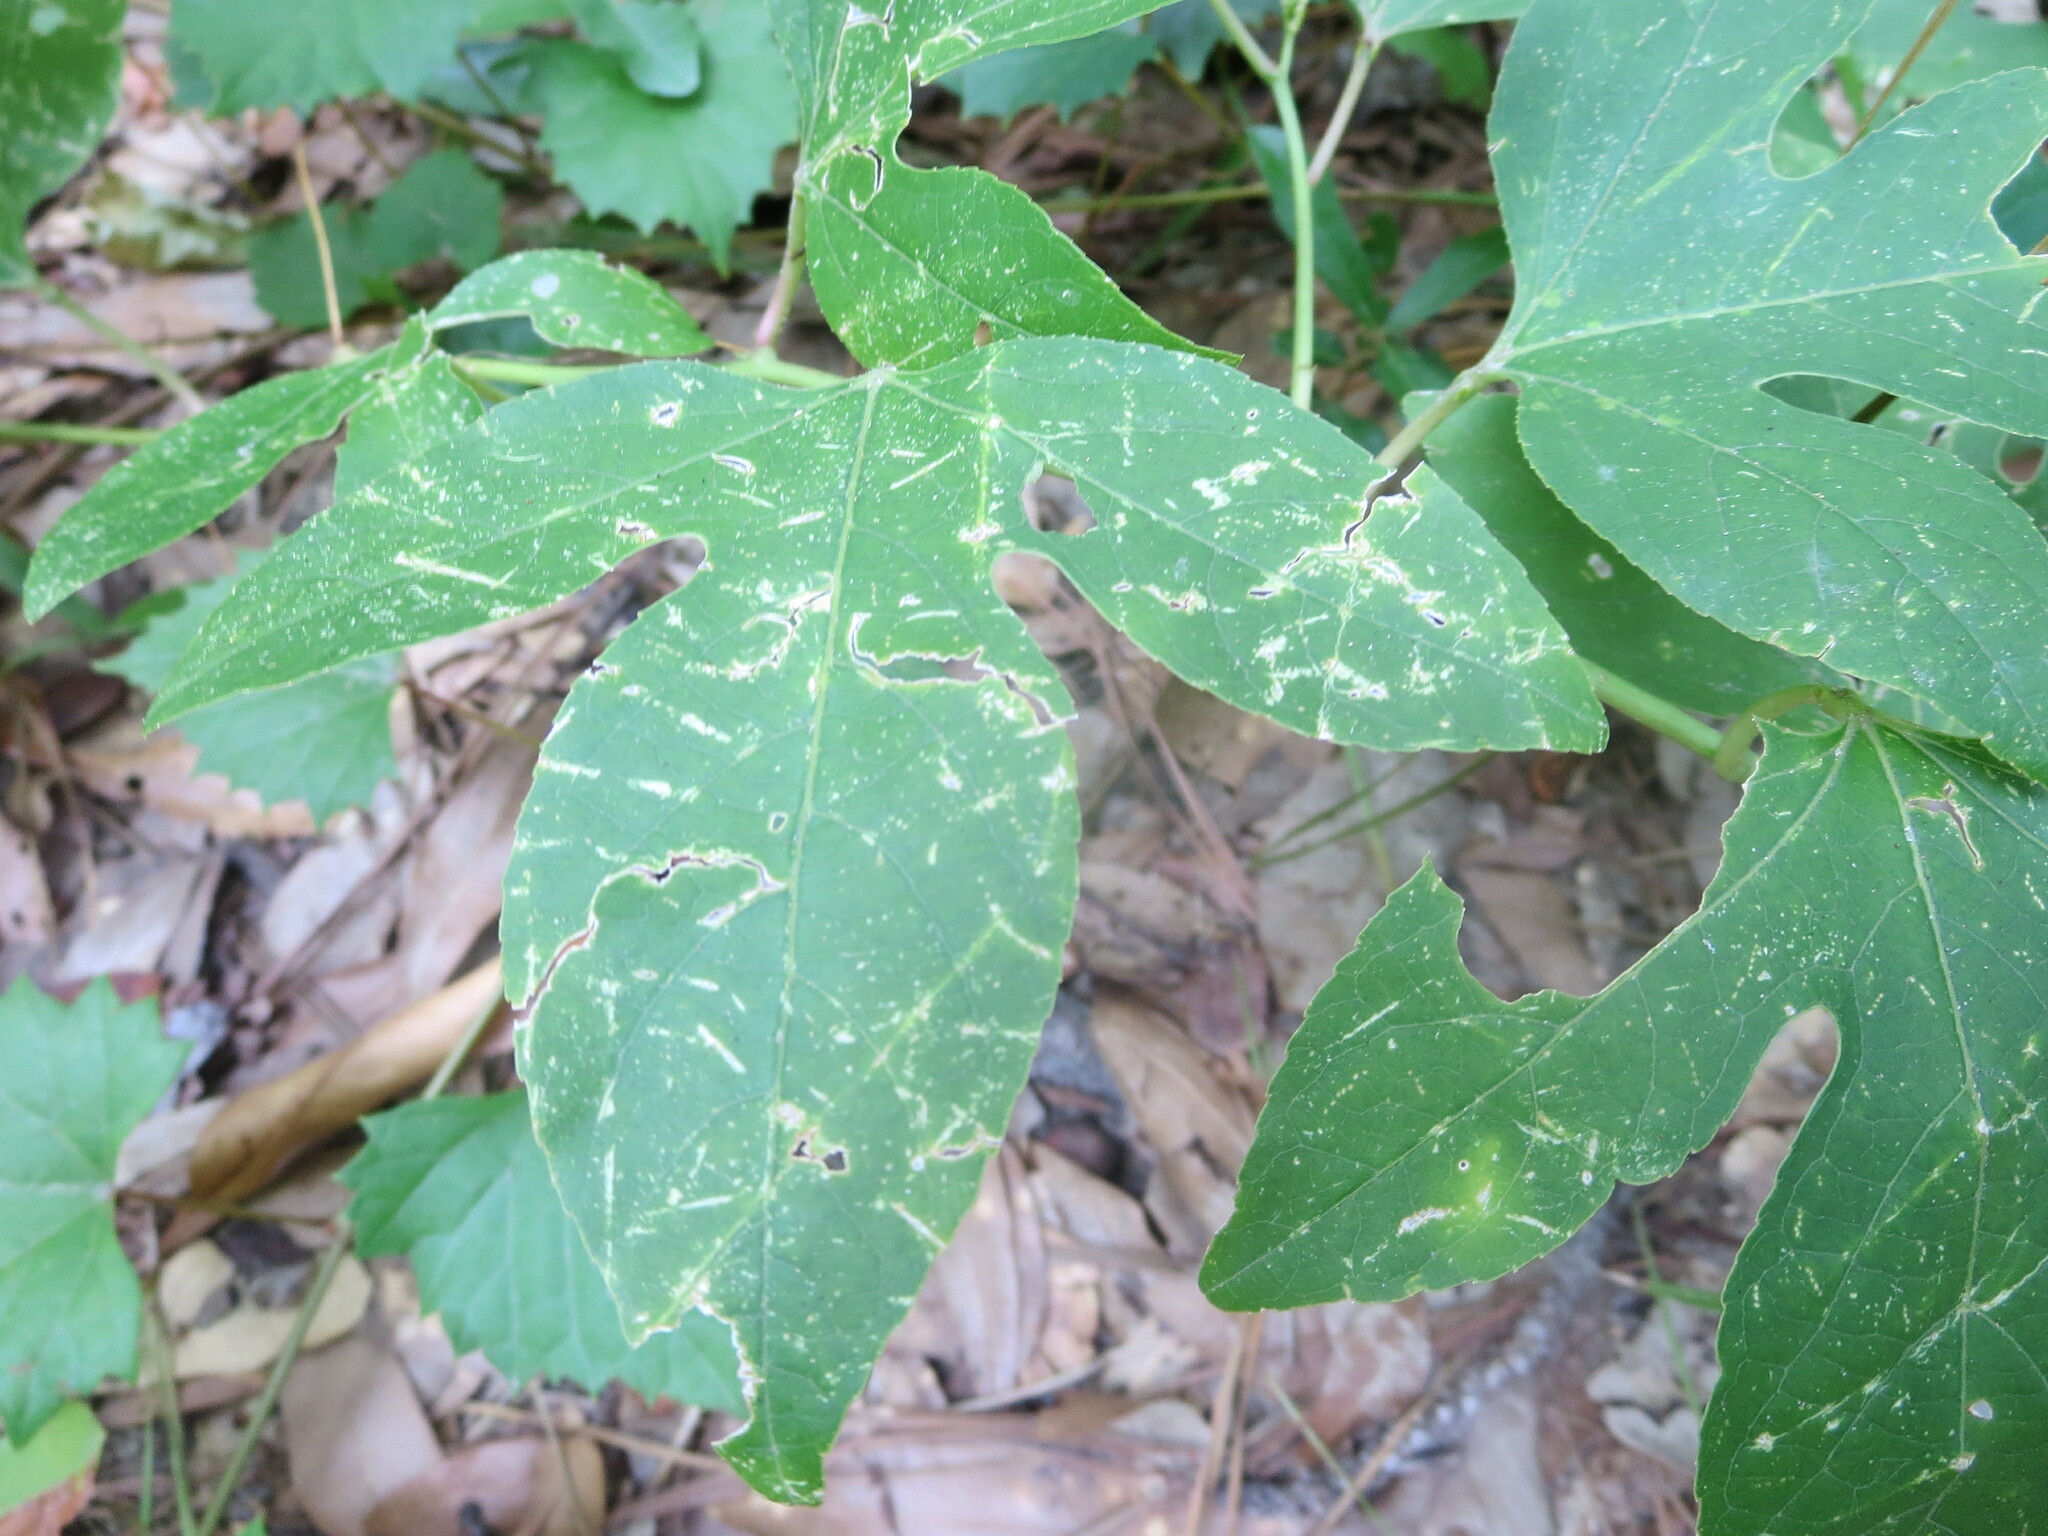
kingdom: Plantae
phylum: Tracheophyta
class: Magnoliopsida
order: Malpighiales
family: Passifloraceae
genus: Passiflora
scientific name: Passiflora incarnata
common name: Apricot-vine
